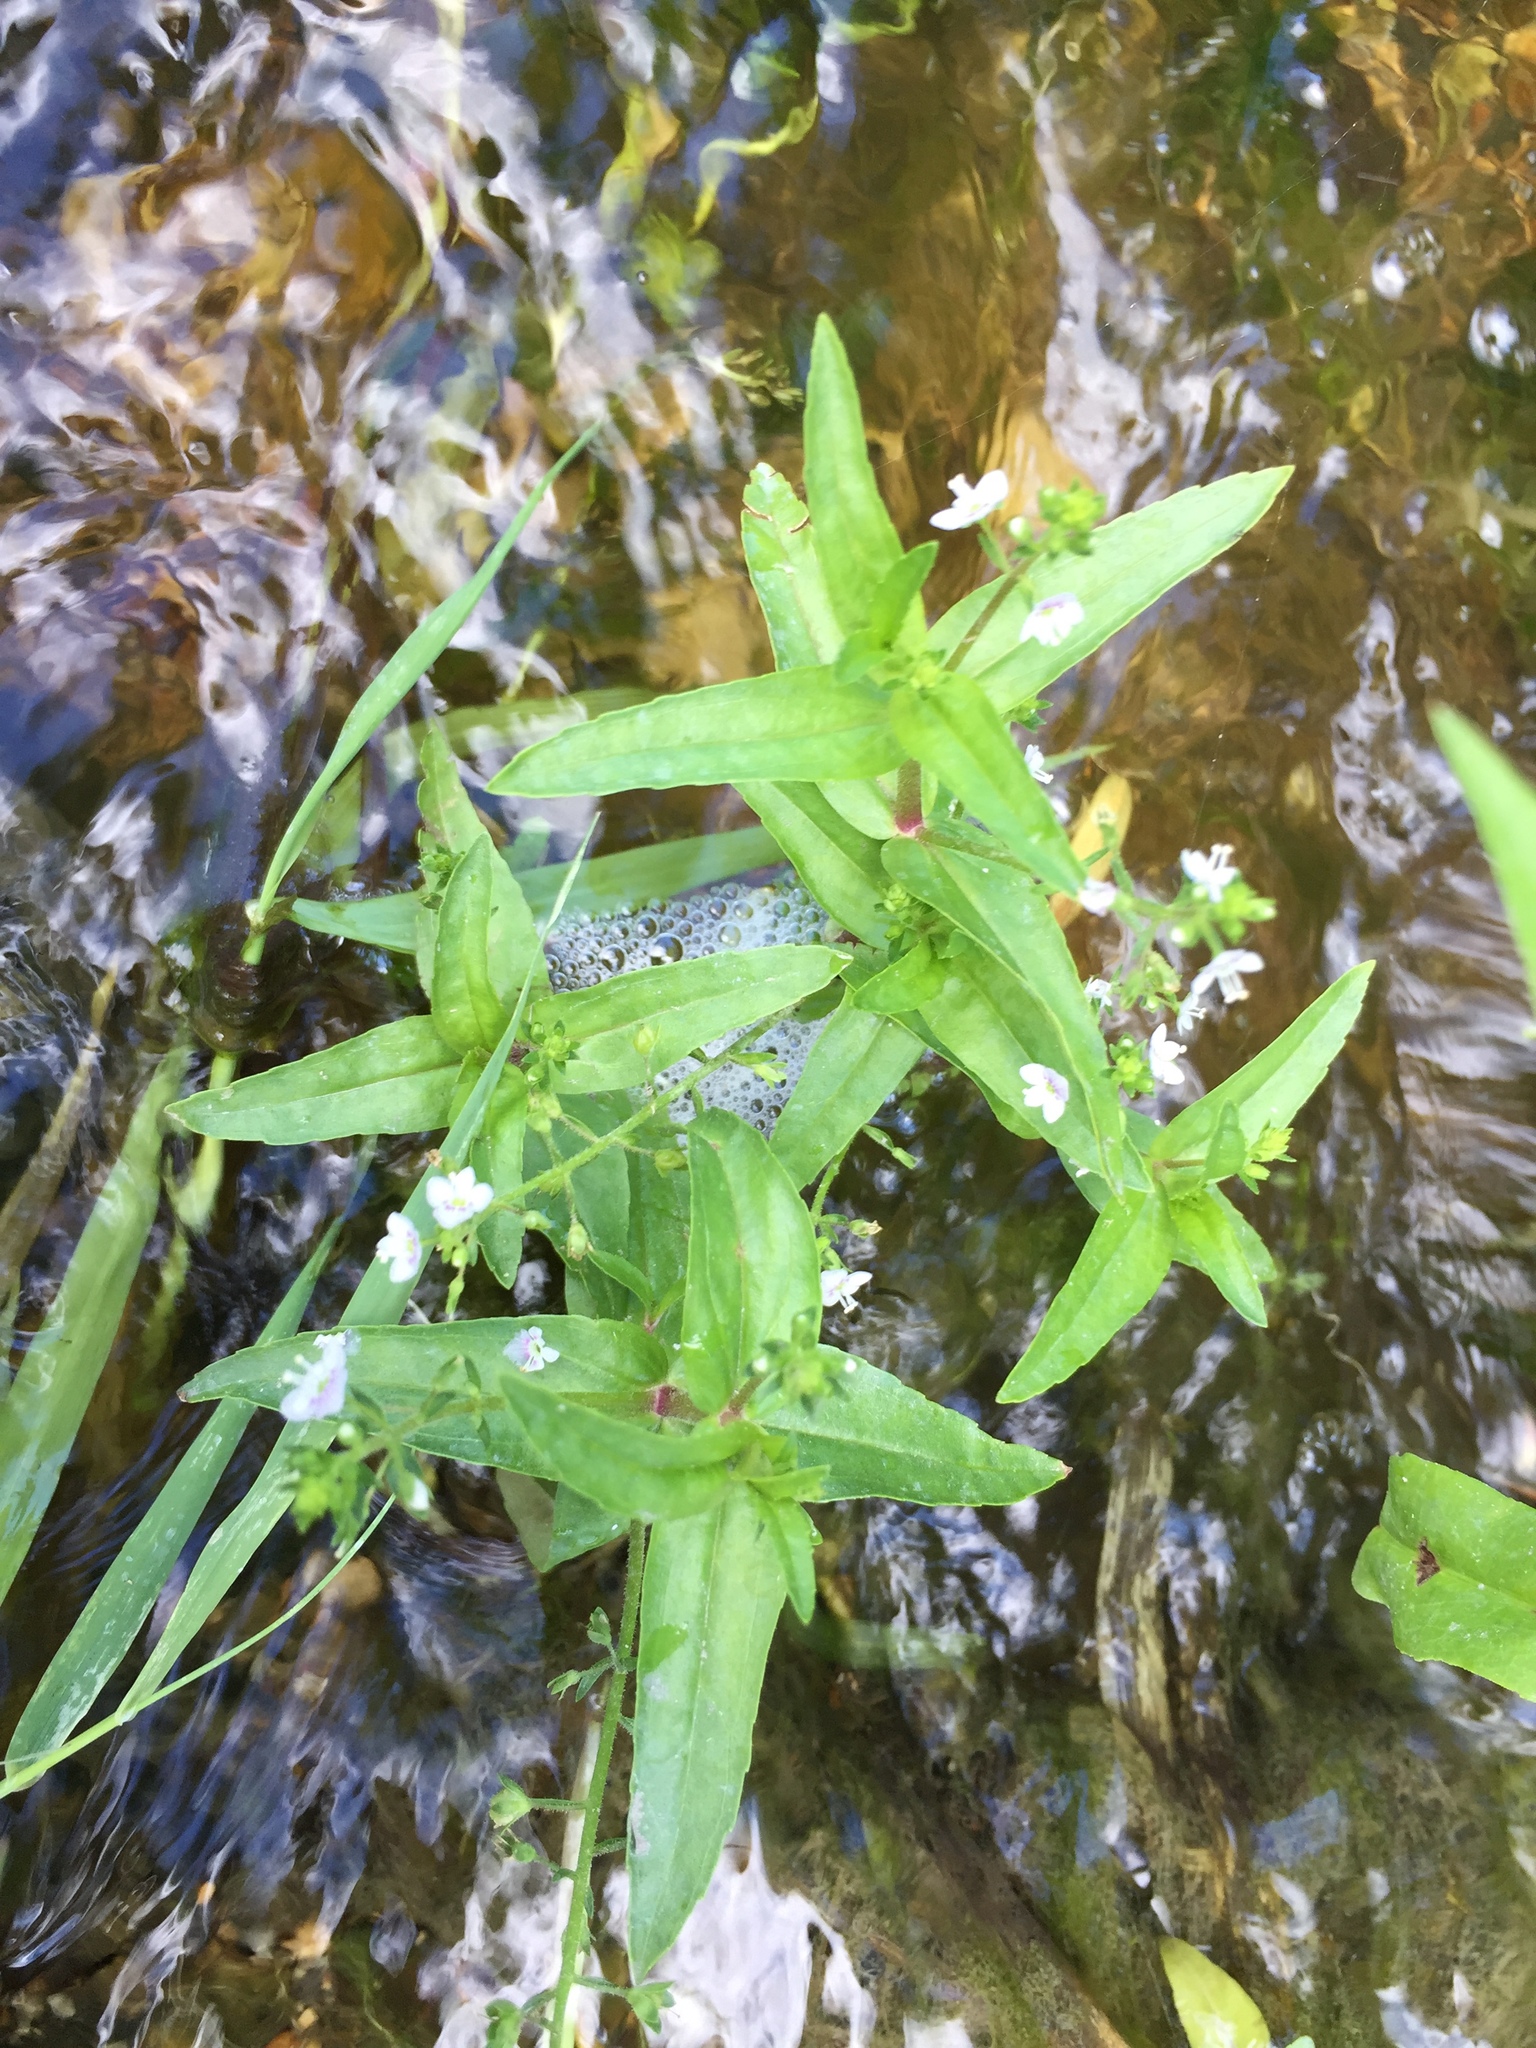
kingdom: Plantae
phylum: Tracheophyta
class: Magnoliopsida
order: Lamiales
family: Plantaginaceae
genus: Veronica
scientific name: Veronica catenata
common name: Pink water-speedwell
